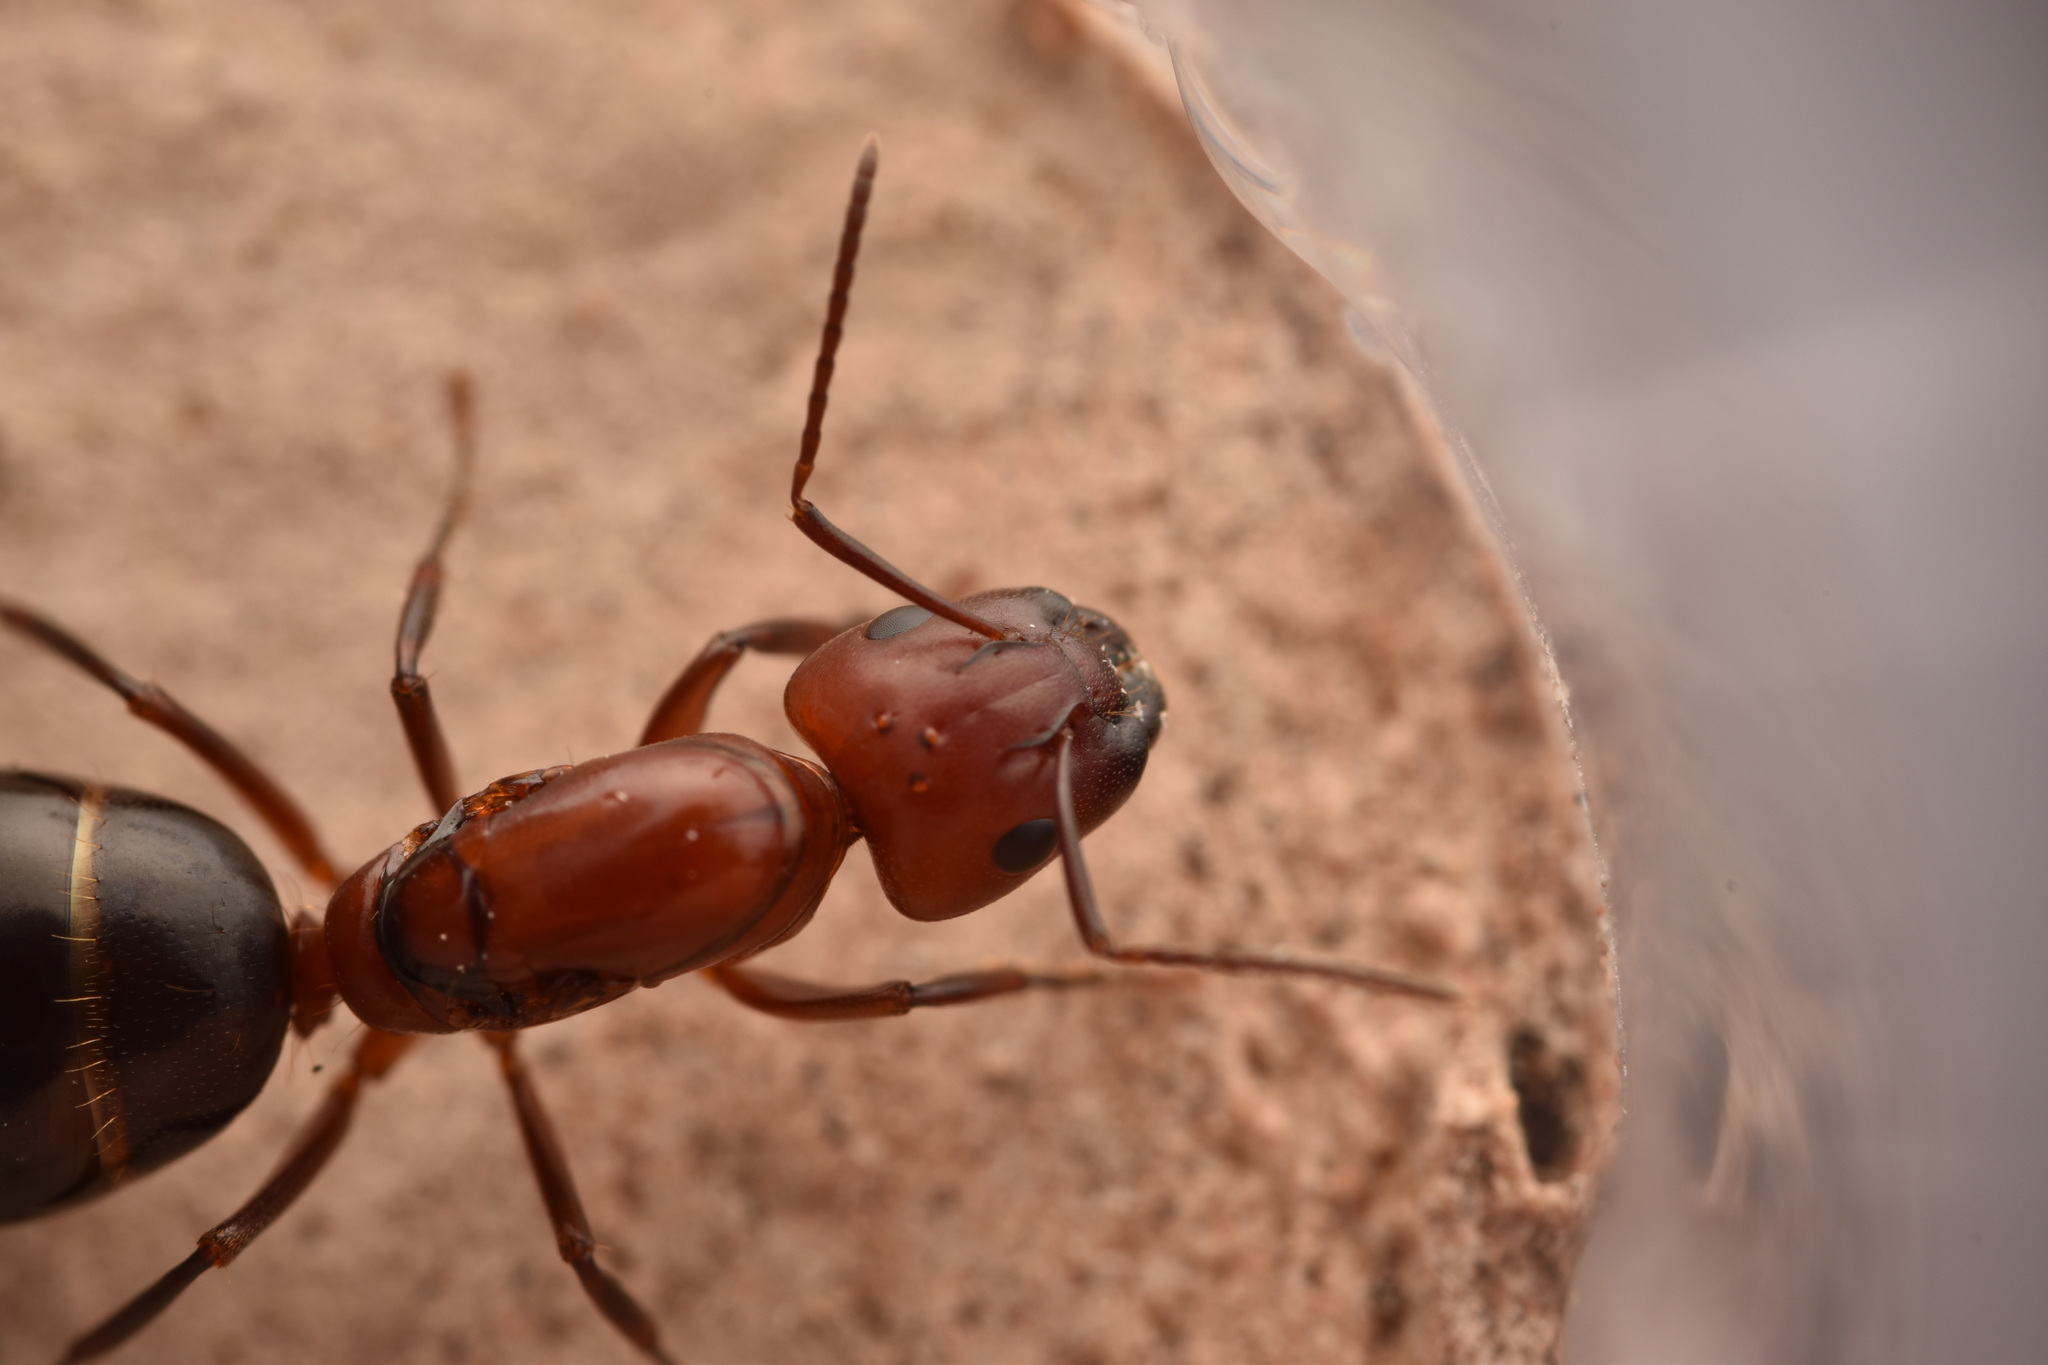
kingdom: Animalia
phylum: Arthropoda
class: Insecta
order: Hymenoptera
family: Formicidae
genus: Camponotus
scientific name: Camponotus decipiens
